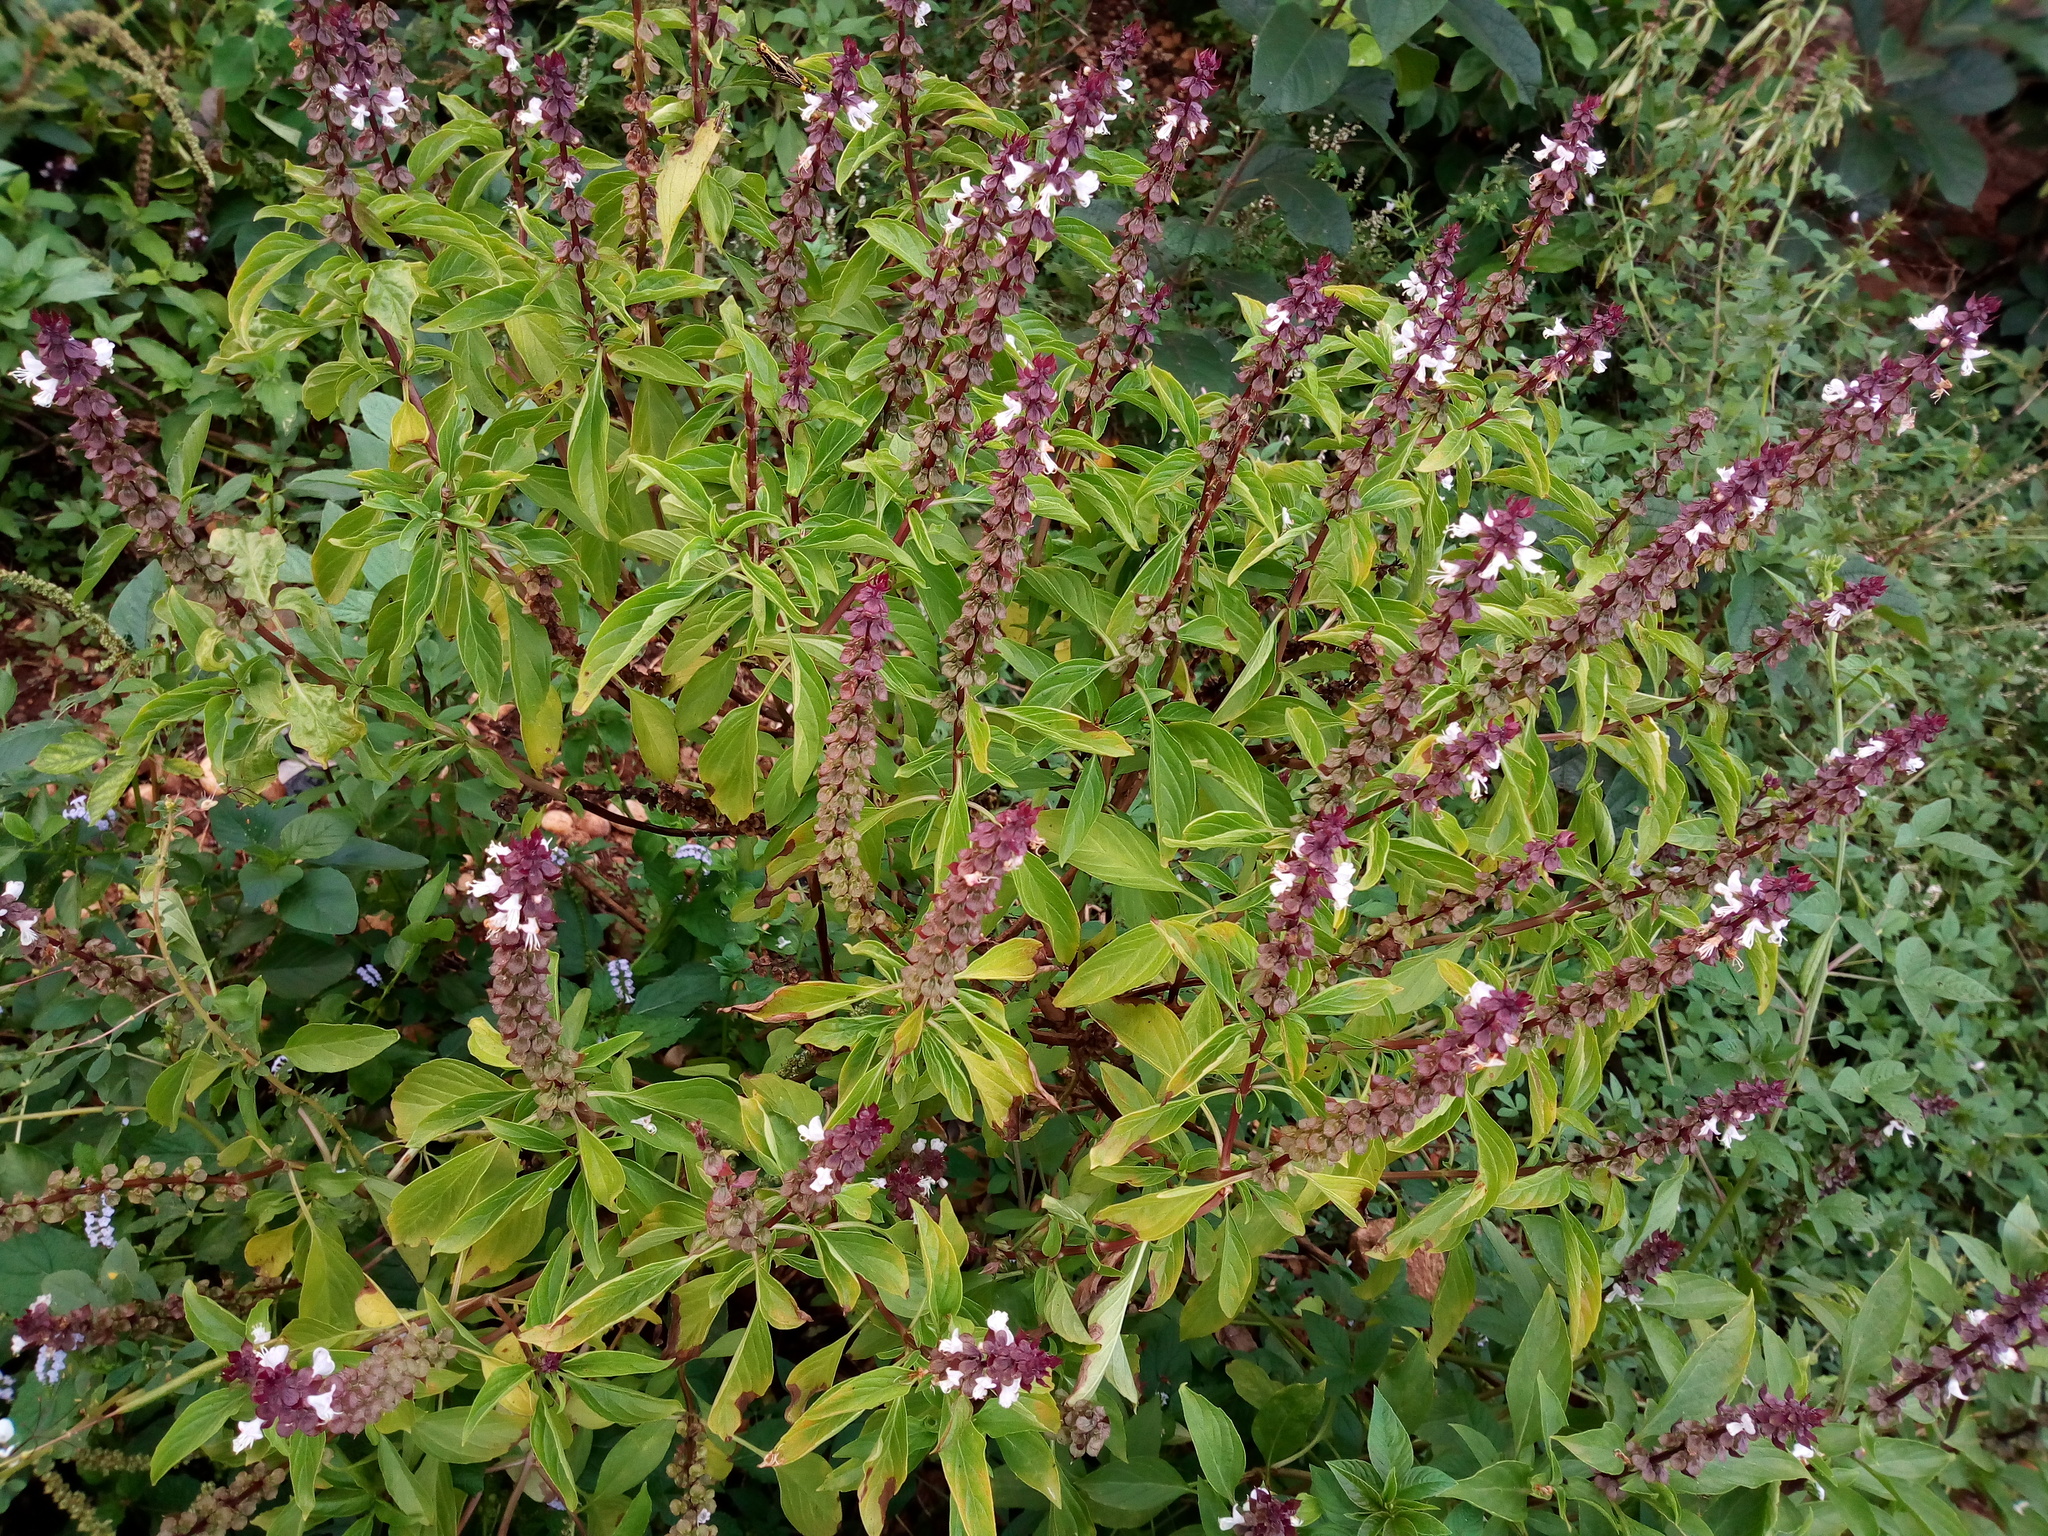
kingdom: Plantae
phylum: Tracheophyta
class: Magnoliopsida
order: Lamiales
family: Lamiaceae
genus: Ocimum
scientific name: Ocimum basilicum
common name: Sweet basil
